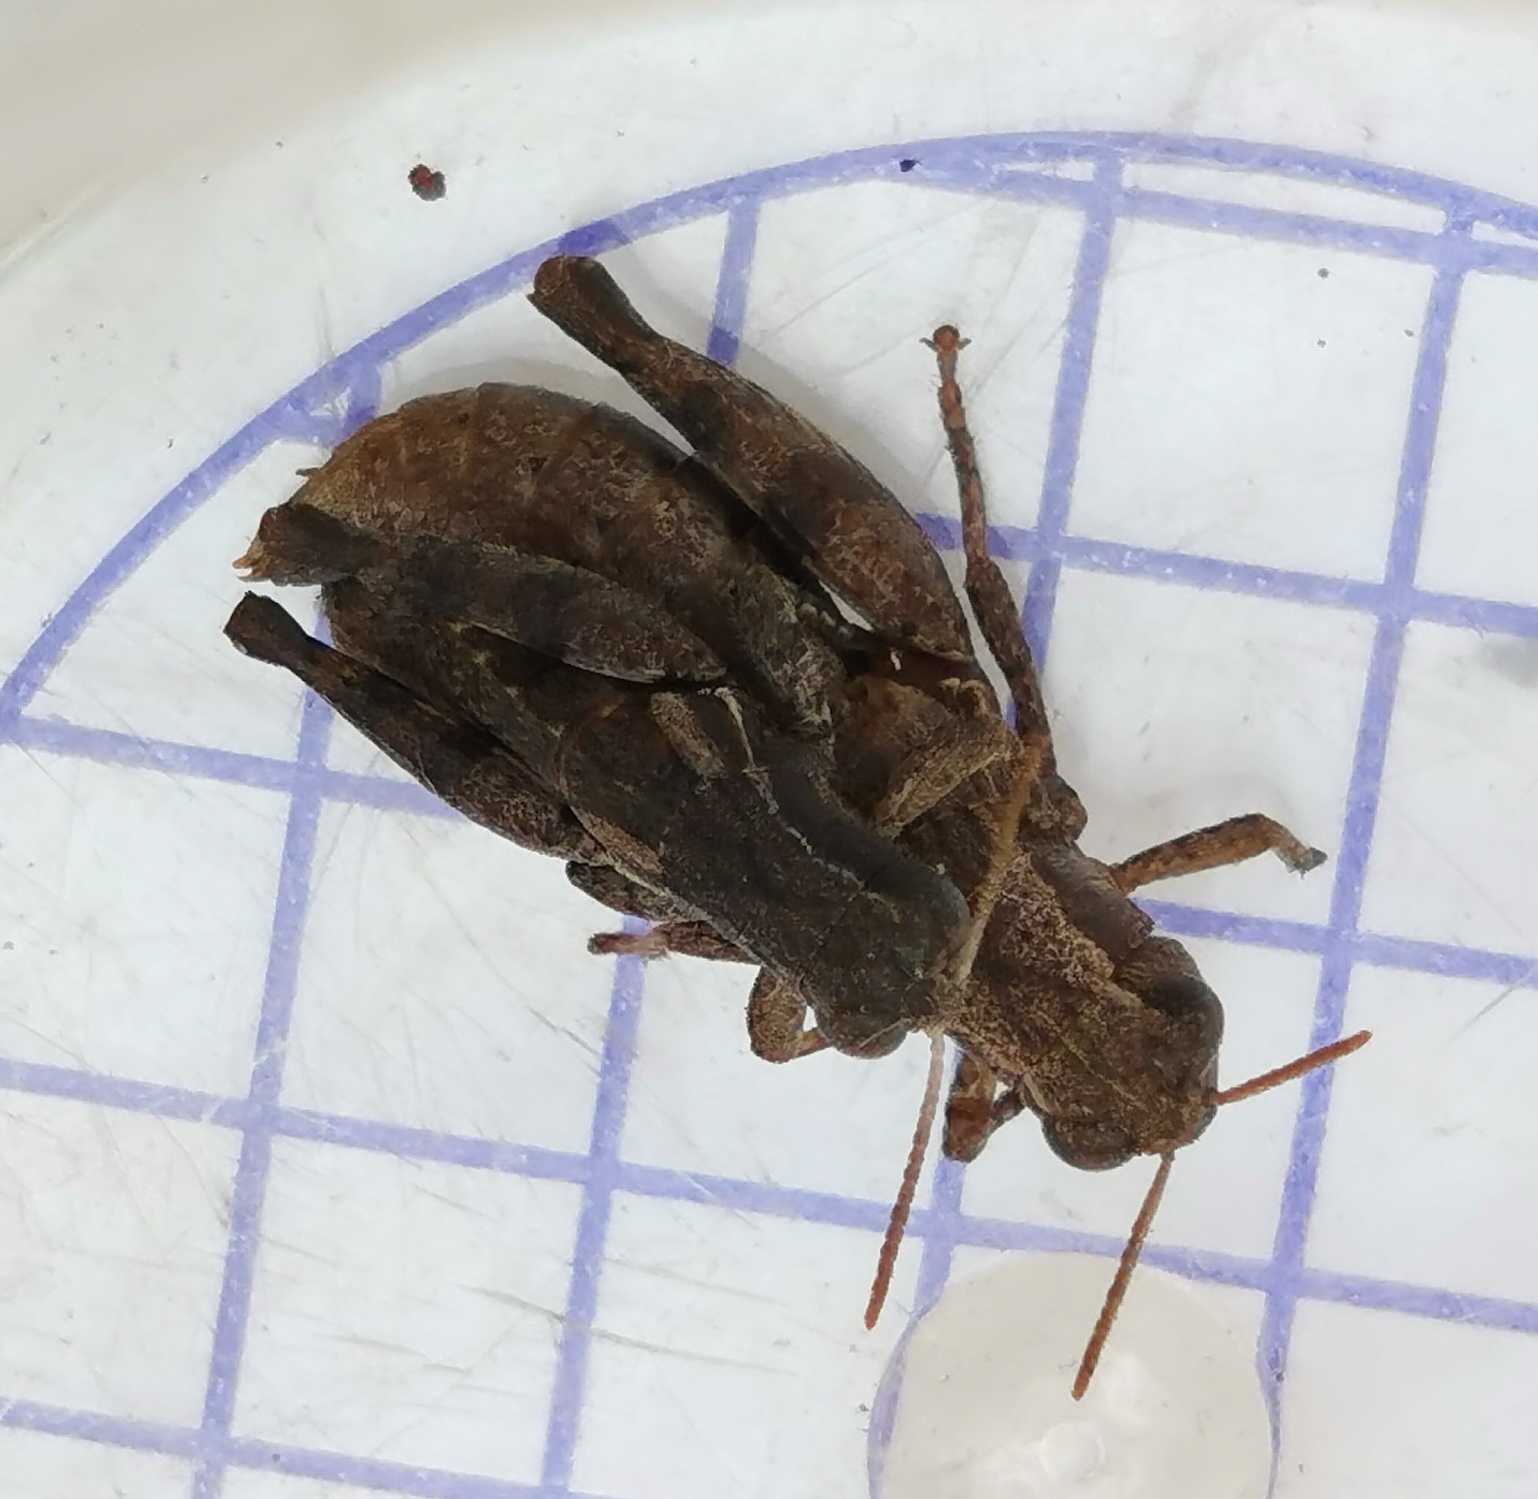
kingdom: Animalia
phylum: Arthropoda
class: Insecta
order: Orthoptera
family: Acrididae
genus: Pezotettix
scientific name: Pezotettix giornae
